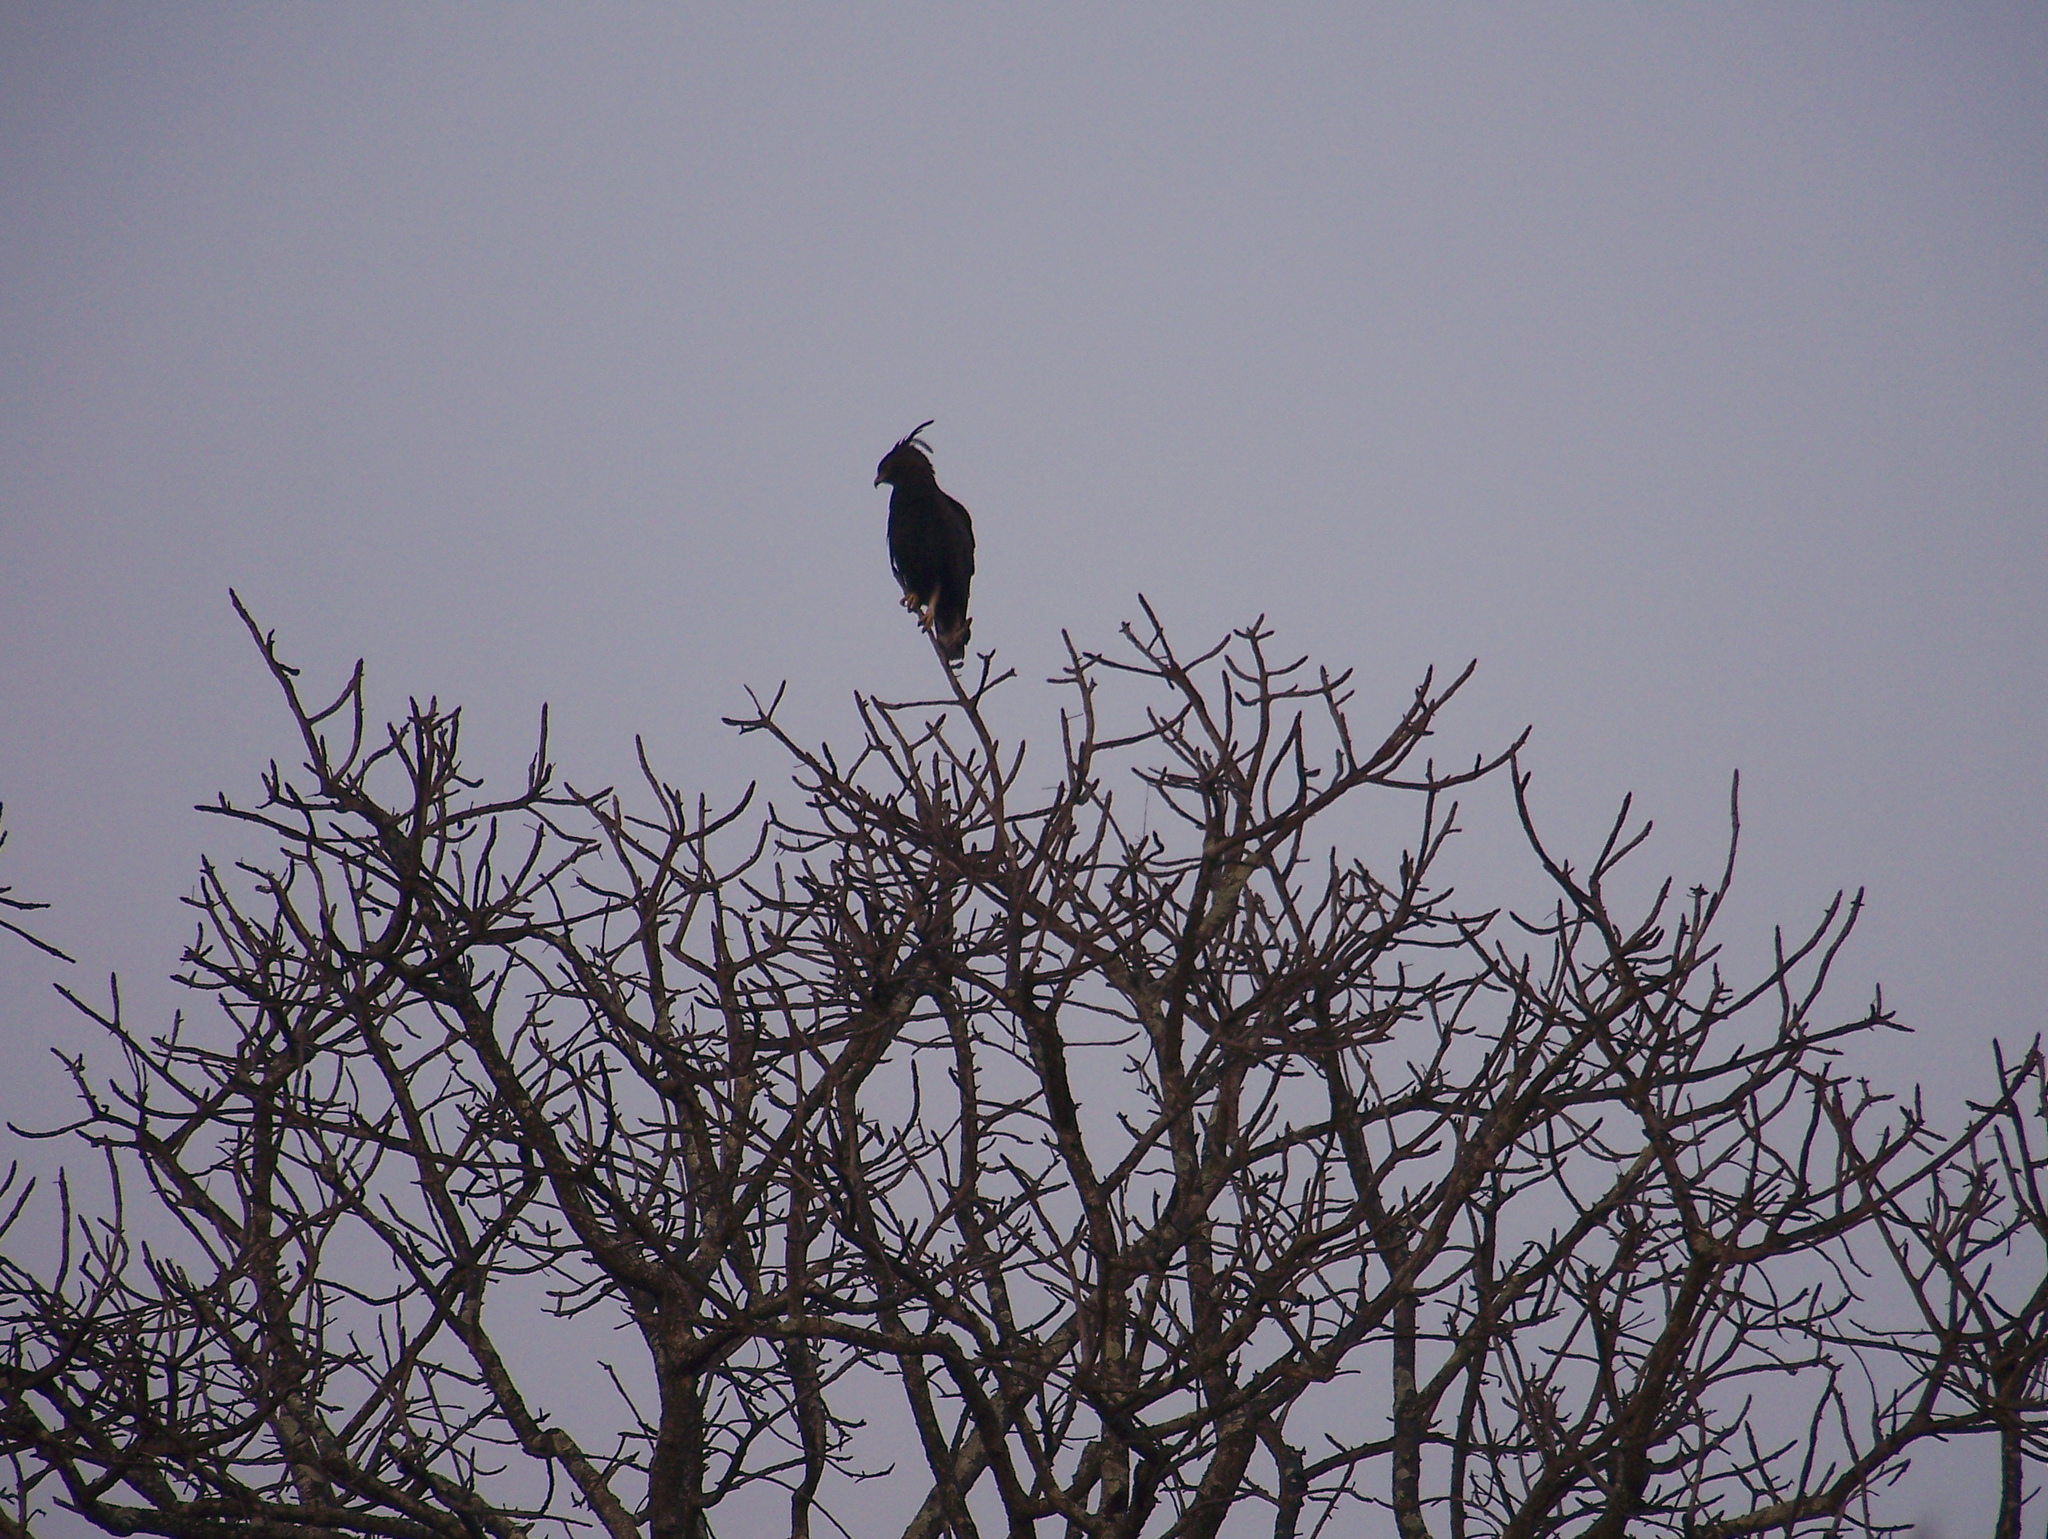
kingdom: Animalia
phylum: Chordata
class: Aves
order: Accipitriformes
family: Accipitridae
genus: Lophaetus
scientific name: Lophaetus occipitalis
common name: Long-crested eagle
